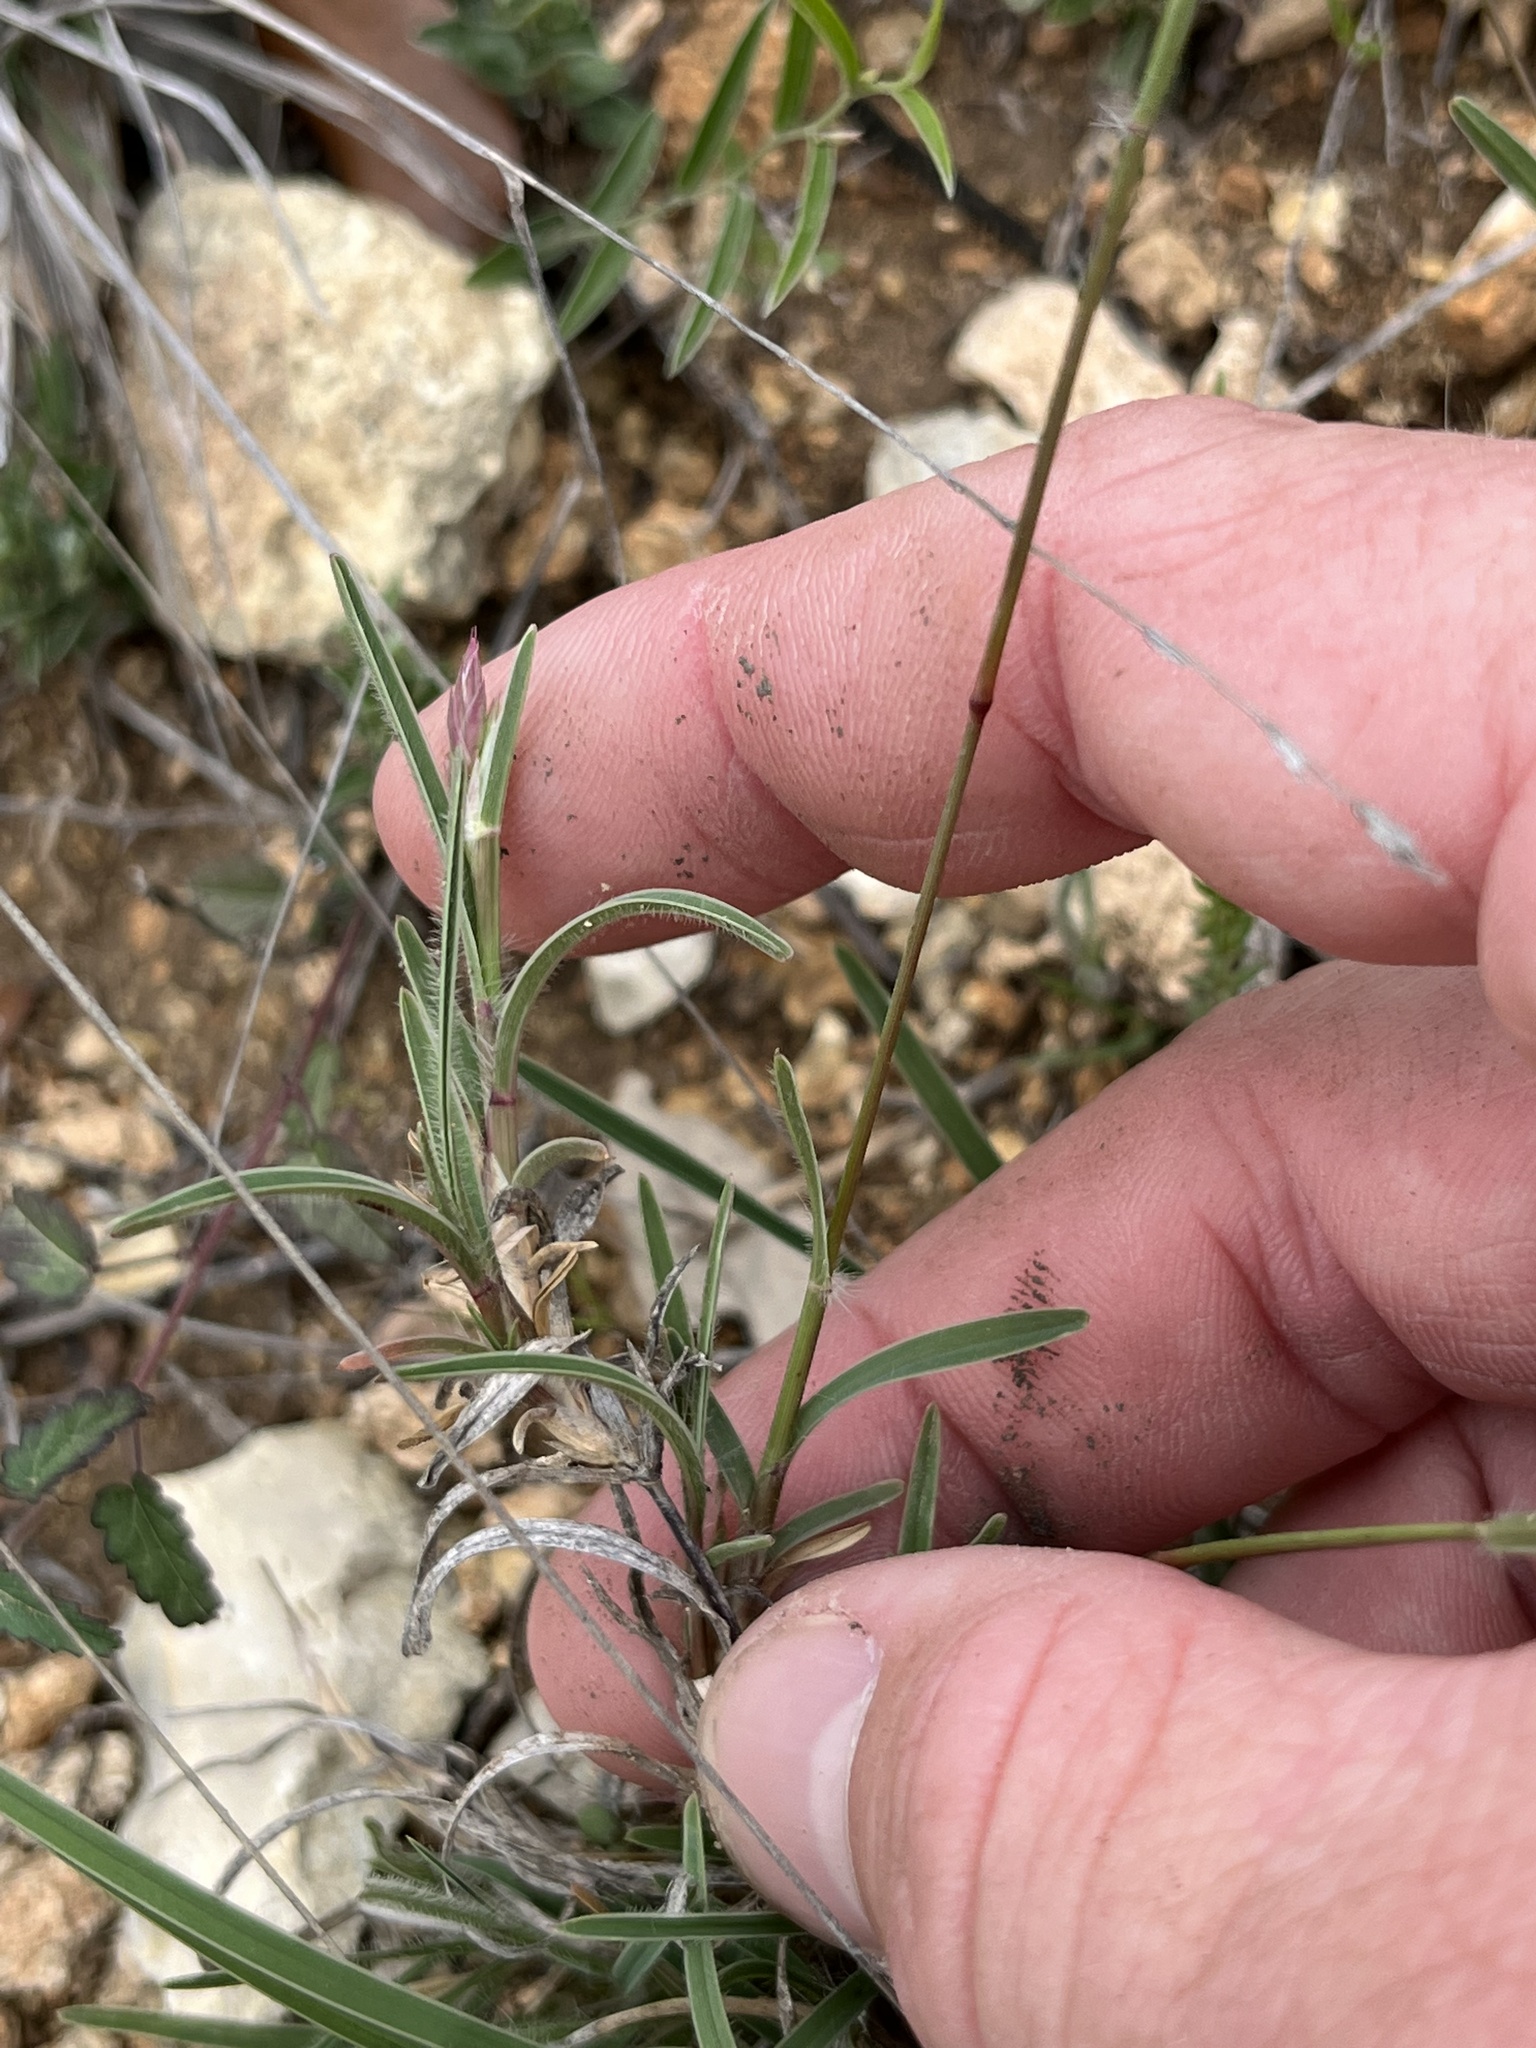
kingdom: Plantae
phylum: Tracheophyta
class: Liliopsida
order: Poales
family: Poaceae
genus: Erioneuron
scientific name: Erioneuron pilosum
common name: Hairy woolly grass
